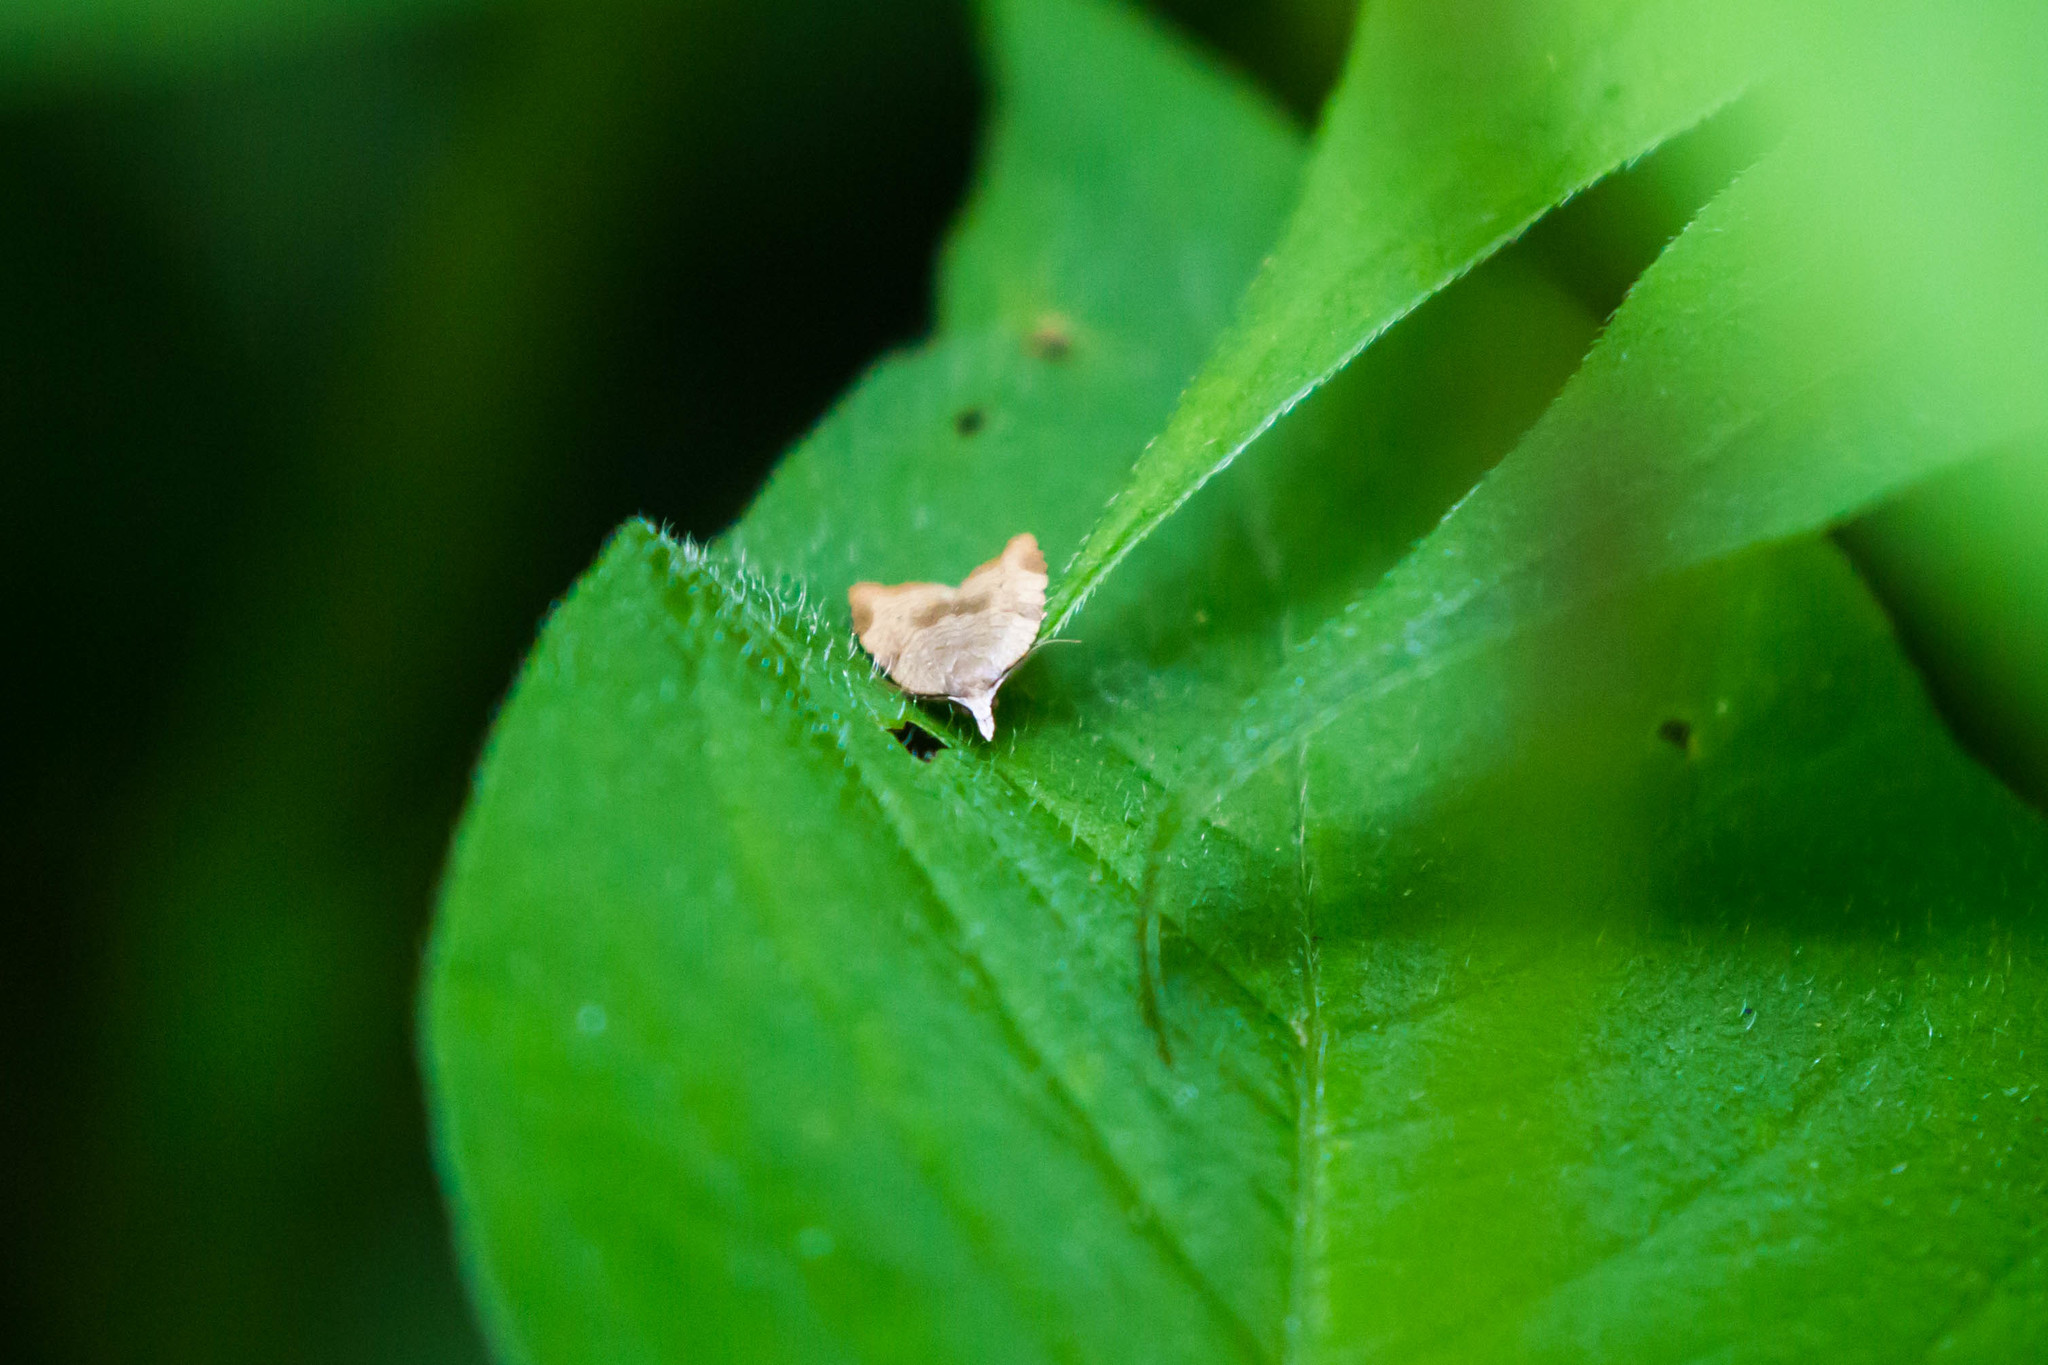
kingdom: Animalia
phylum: Arthropoda
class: Insecta
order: Lepidoptera
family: Tortricidae
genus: Coelostathma
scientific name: Coelostathma discopunctana
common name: Batman moth
